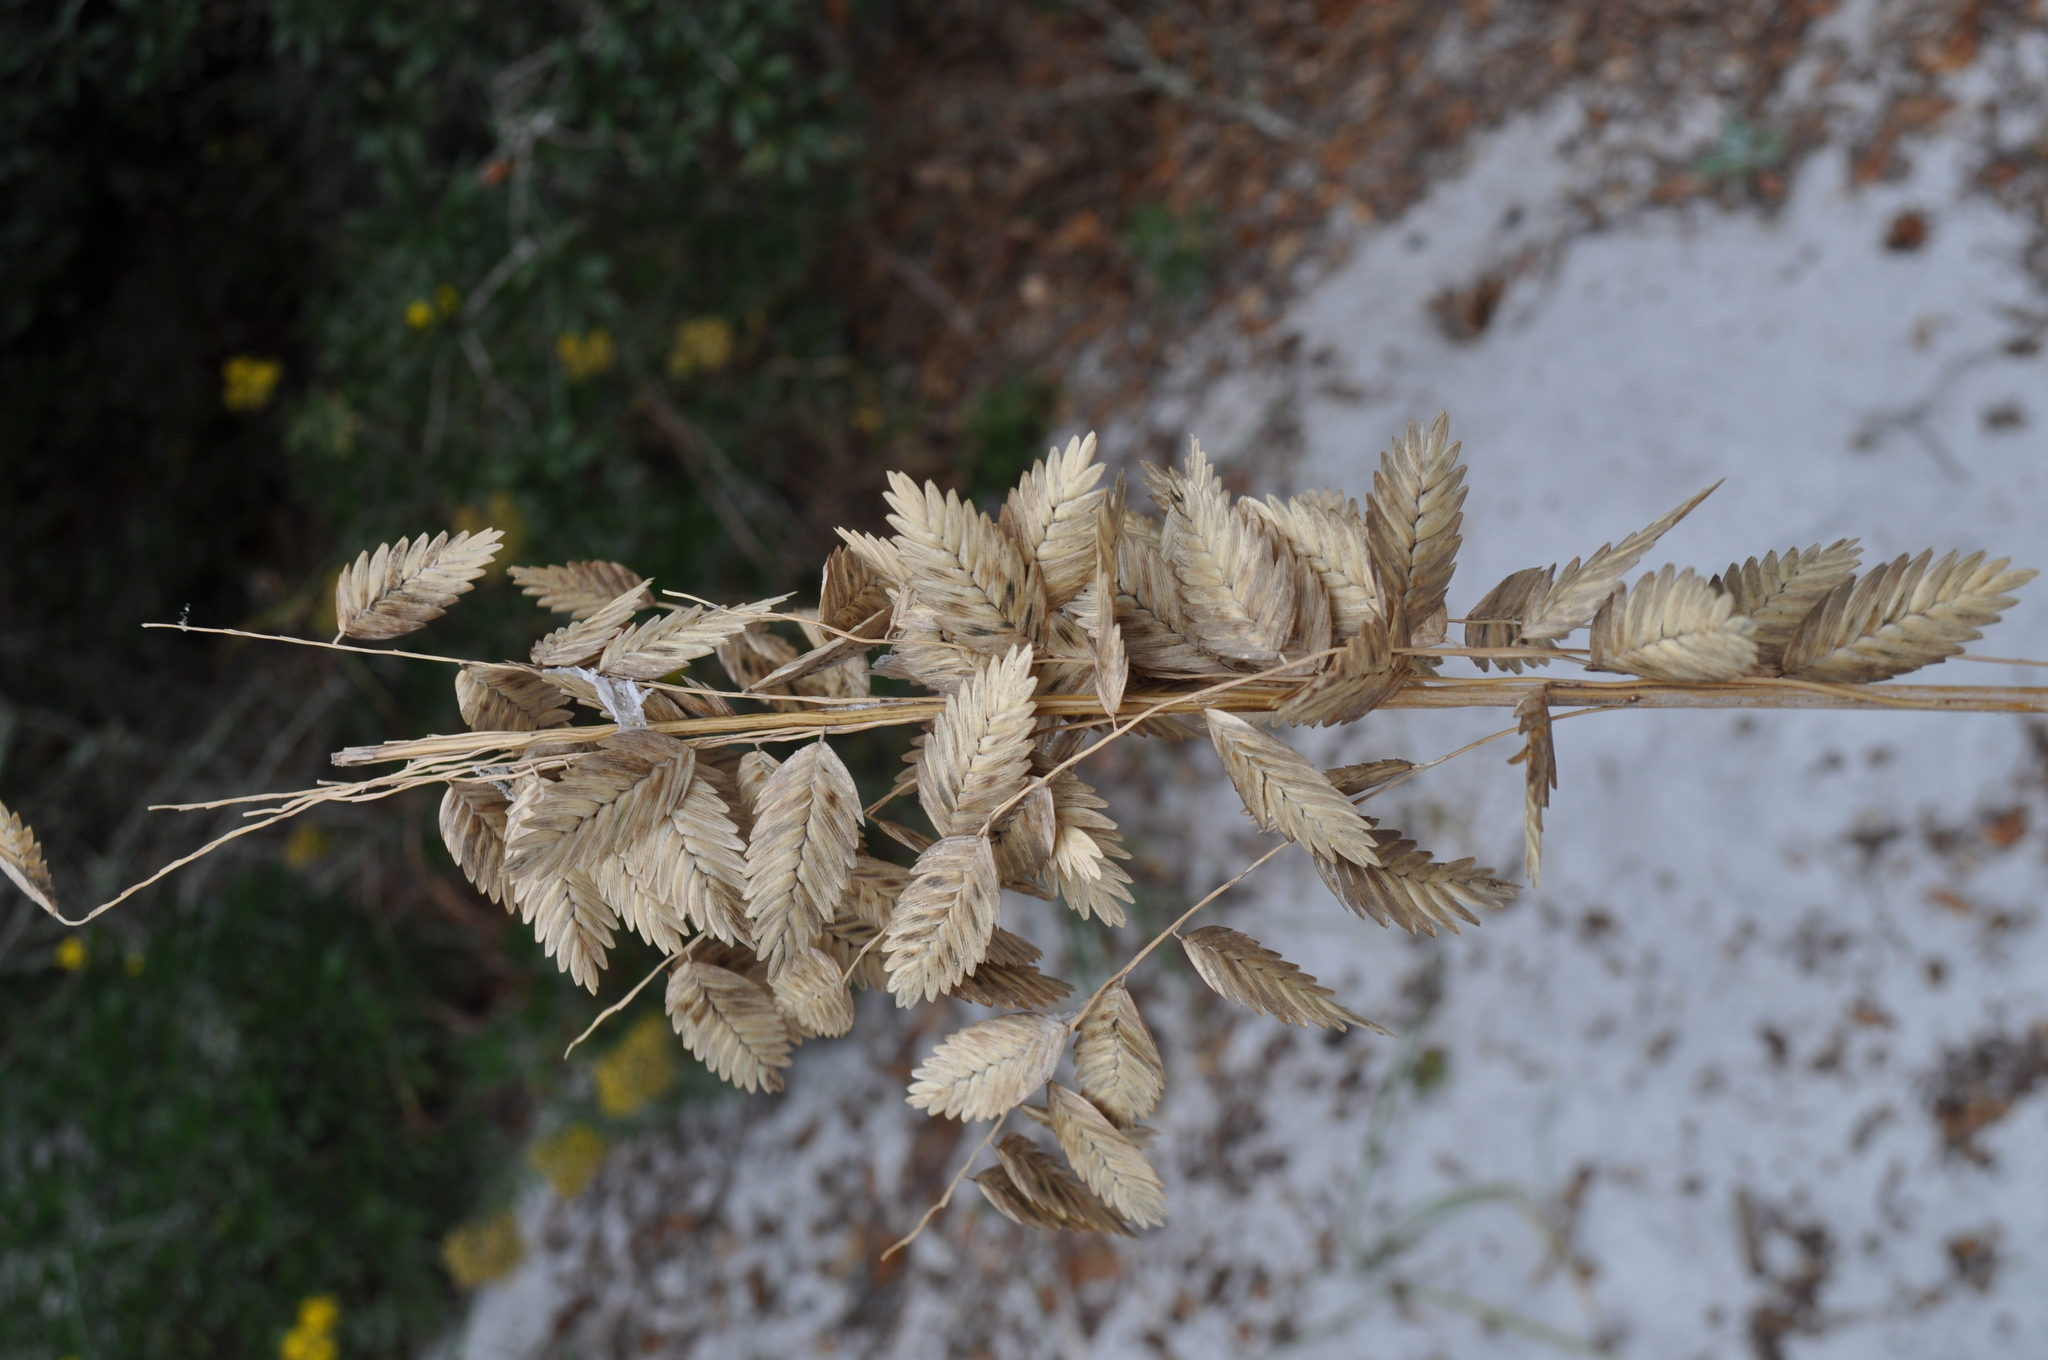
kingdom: Plantae
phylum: Tracheophyta
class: Liliopsida
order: Poales
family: Poaceae
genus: Uniola
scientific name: Uniola paniculata
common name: Seaside-oats
